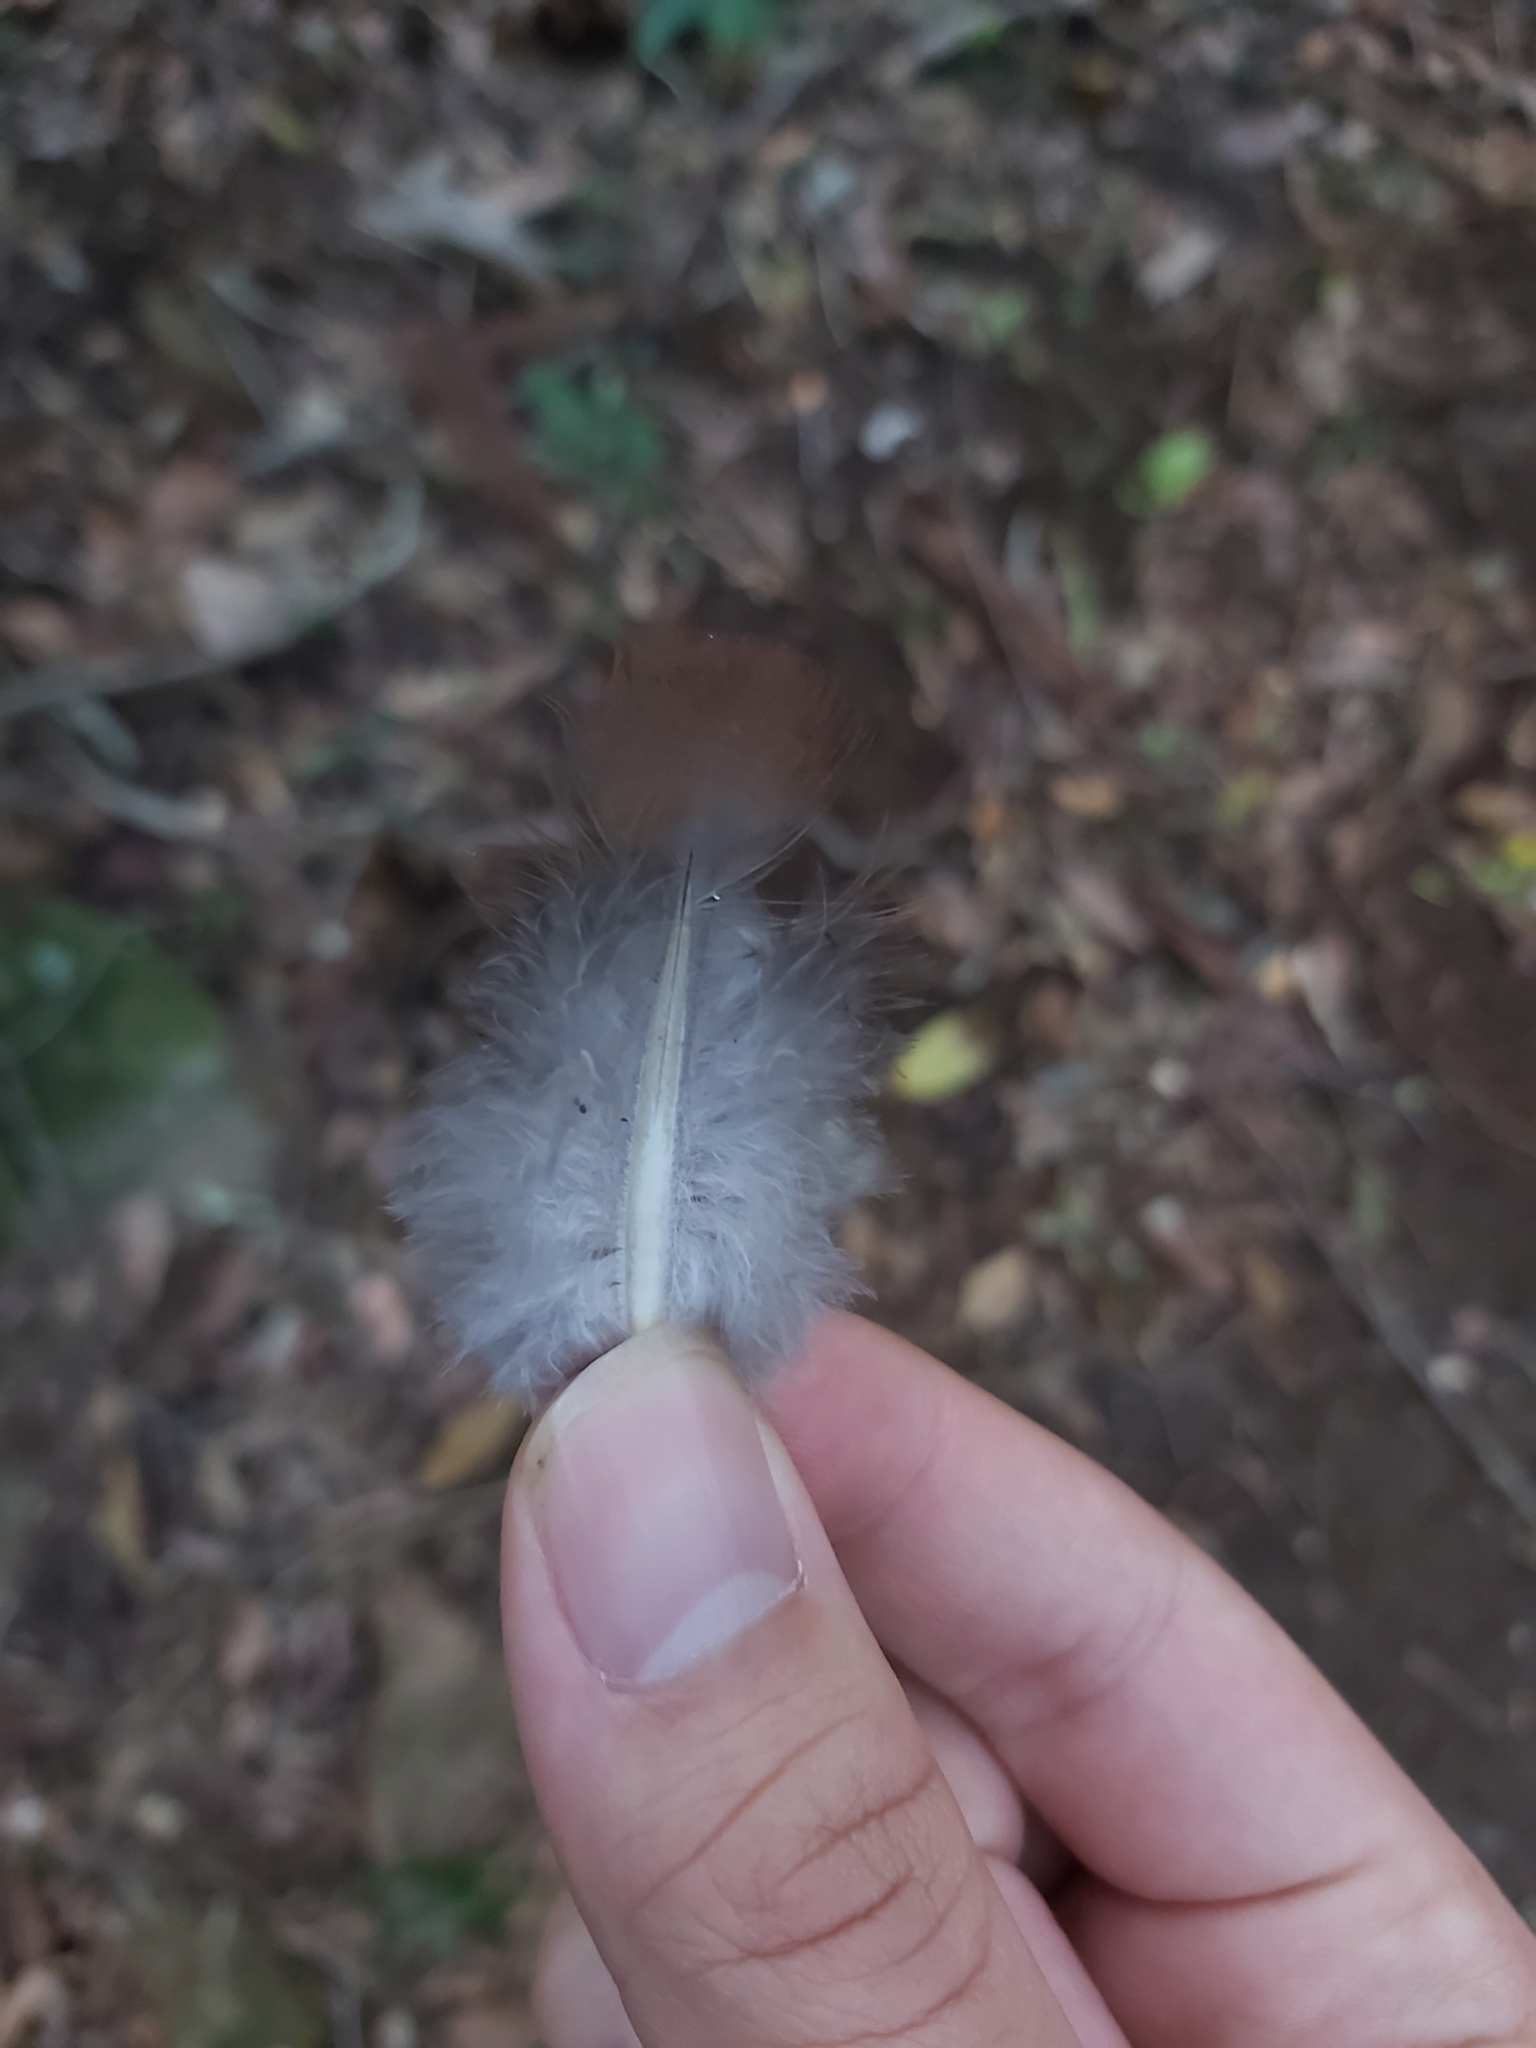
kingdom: Animalia
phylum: Chordata
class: Aves
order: Columbiformes
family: Columbidae
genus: Macropygia
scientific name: Macropygia phasianella
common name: Brown cuckoo-dove
